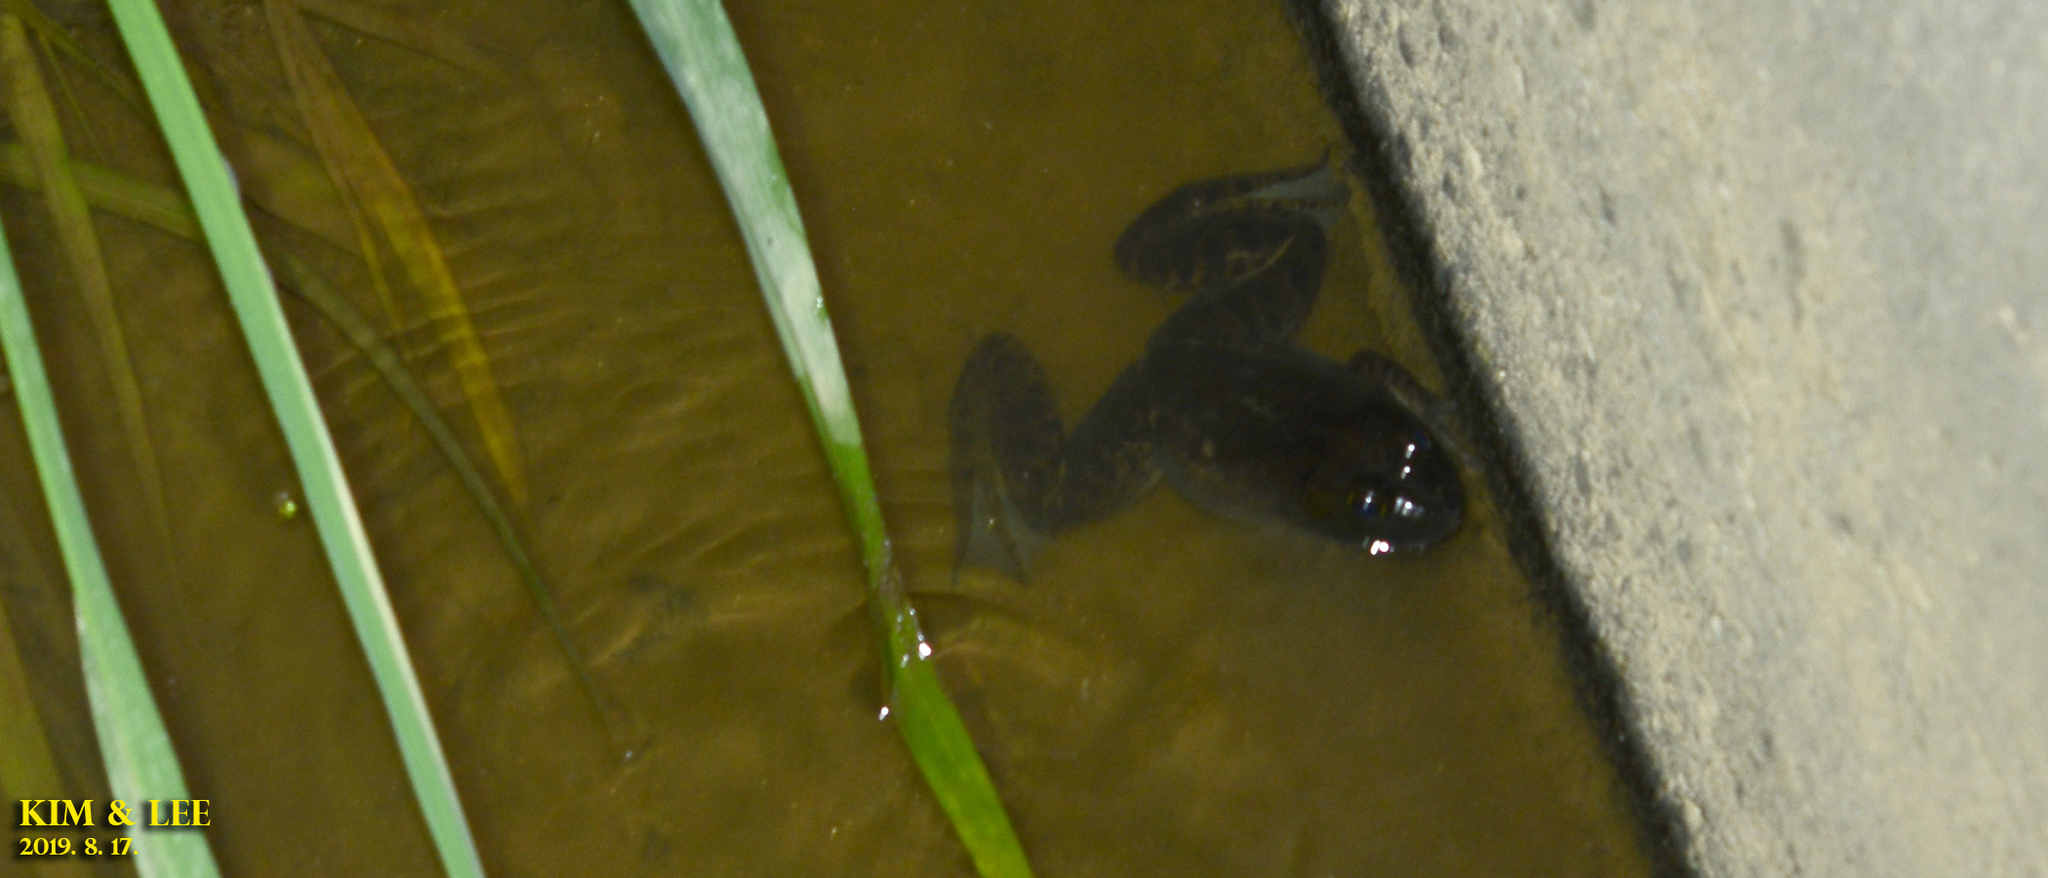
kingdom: Animalia
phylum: Chordata
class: Amphibia
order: Anura
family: Ranidae
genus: Lithobates
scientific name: Lithobates catesbeianus
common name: American bullfrog
